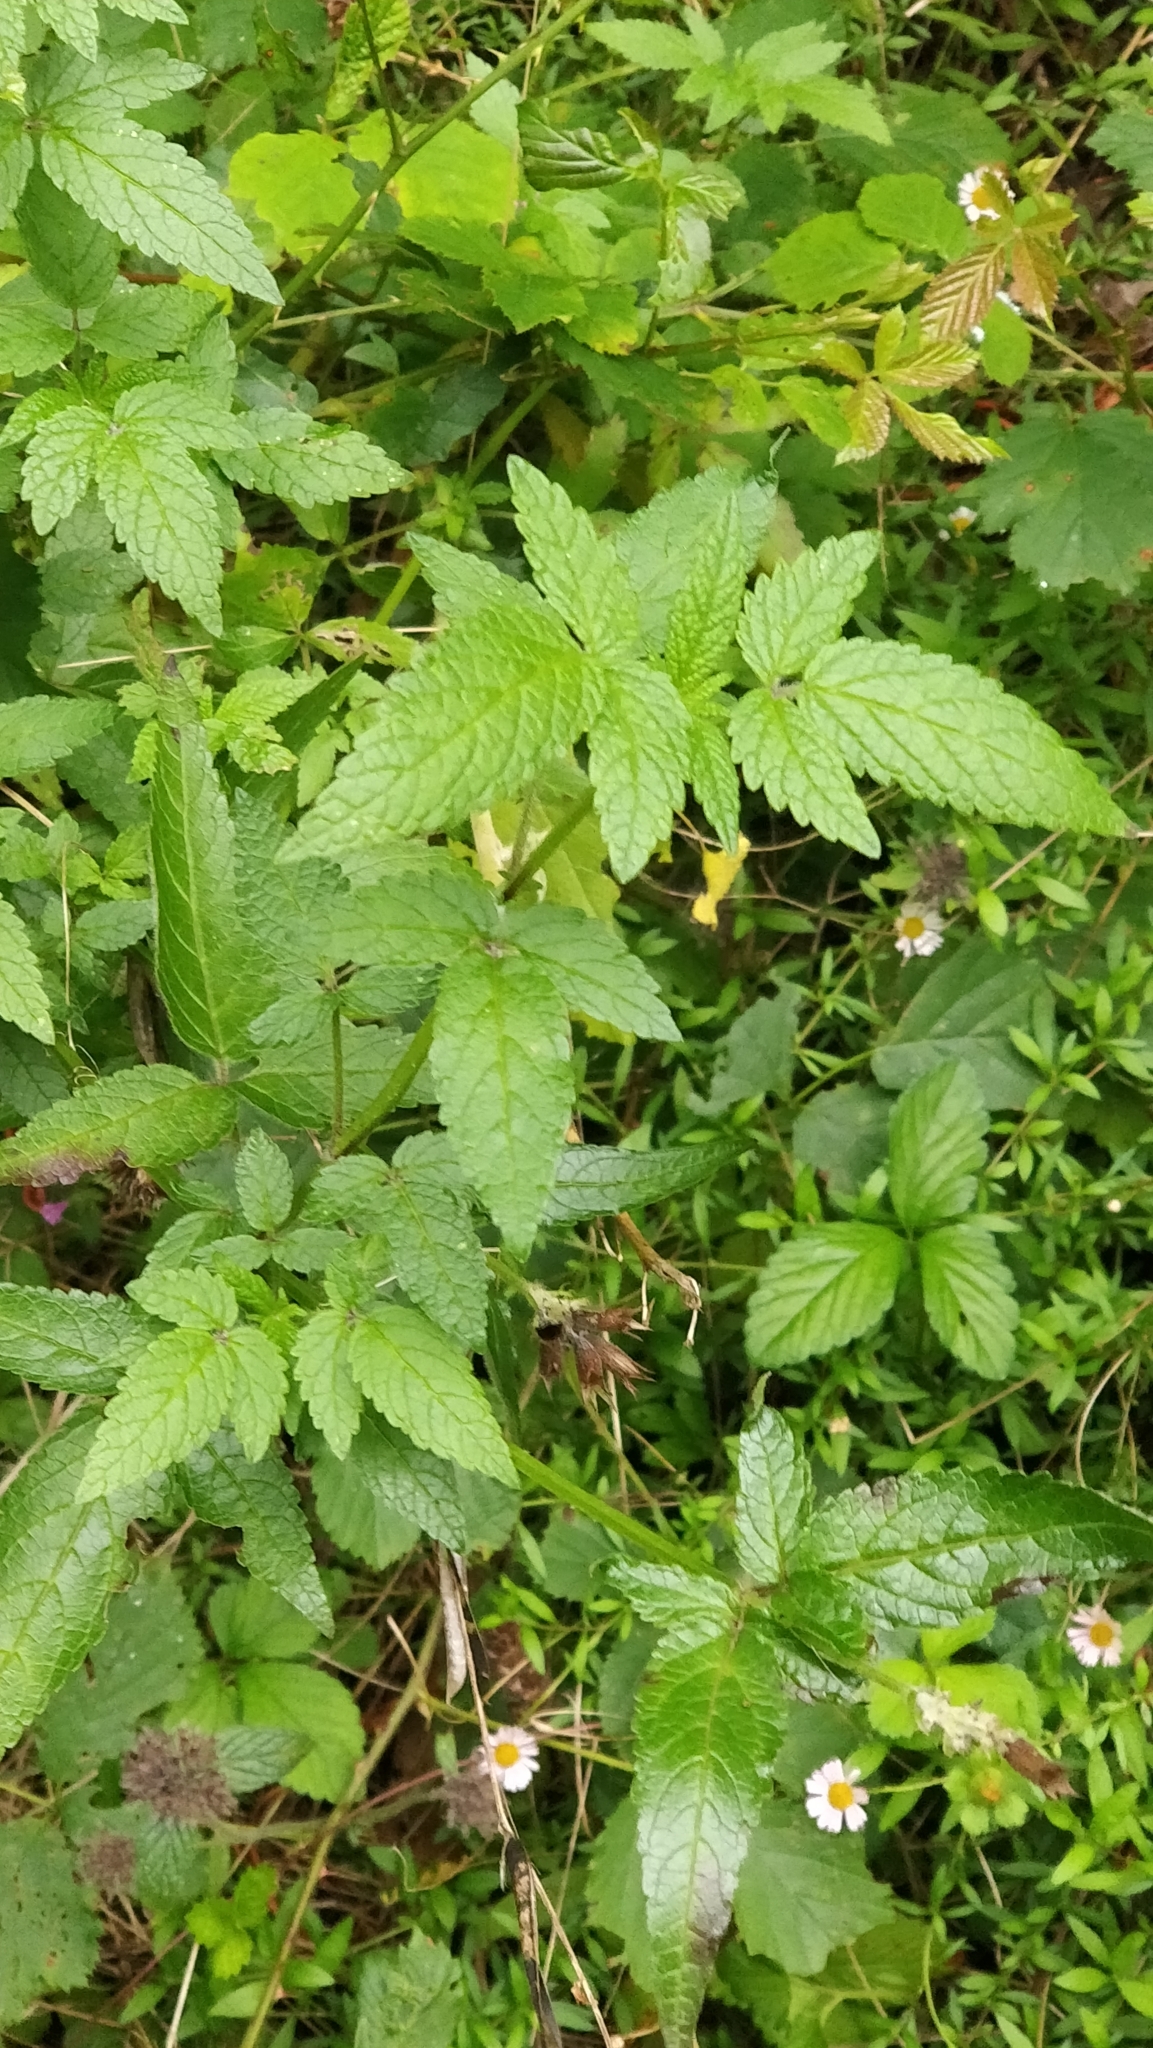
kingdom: Plantae
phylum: Tracheophyta
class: Magnoliopsida
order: Lamiales
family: Lamiaceae
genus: Cedronella
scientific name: Cedronella canariensis
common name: Canary islands balm
